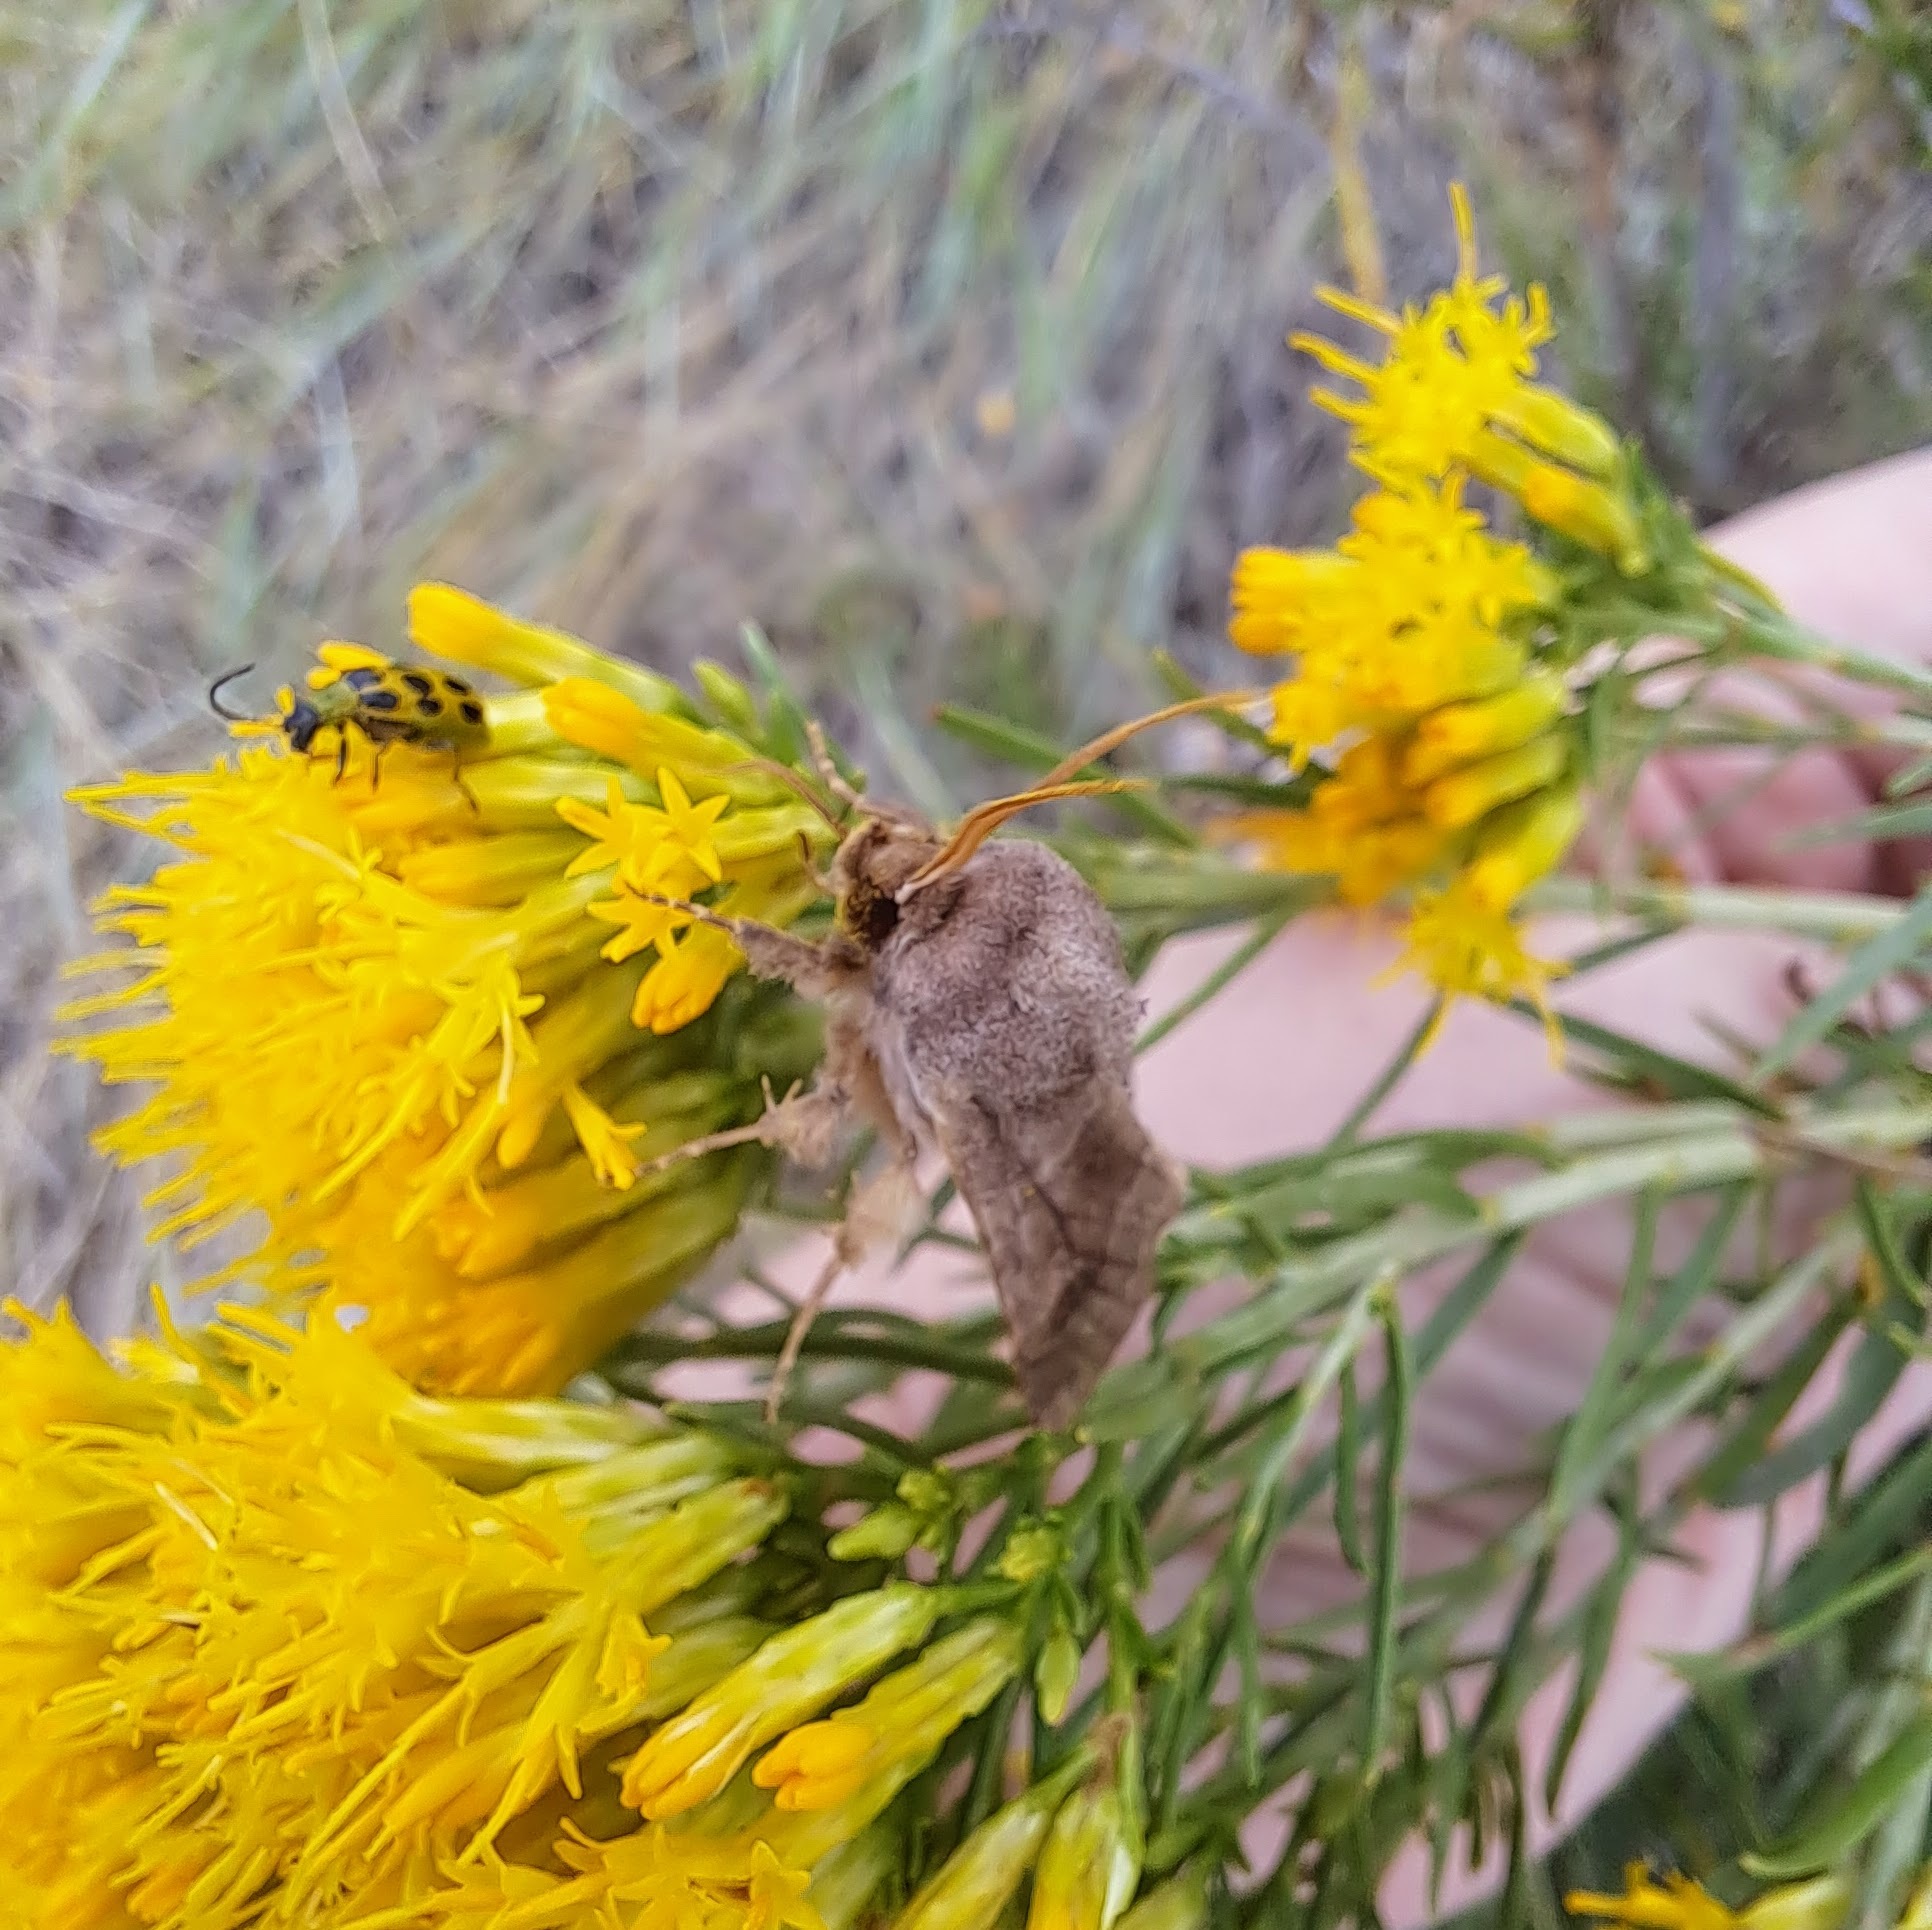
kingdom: Animalia
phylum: Arthropoda
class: Insecta
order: Coleoptera
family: Chrysomelidae
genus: Diabrotica
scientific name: Diabrotica undecimpunctata
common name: Spotted cucumber beetle
